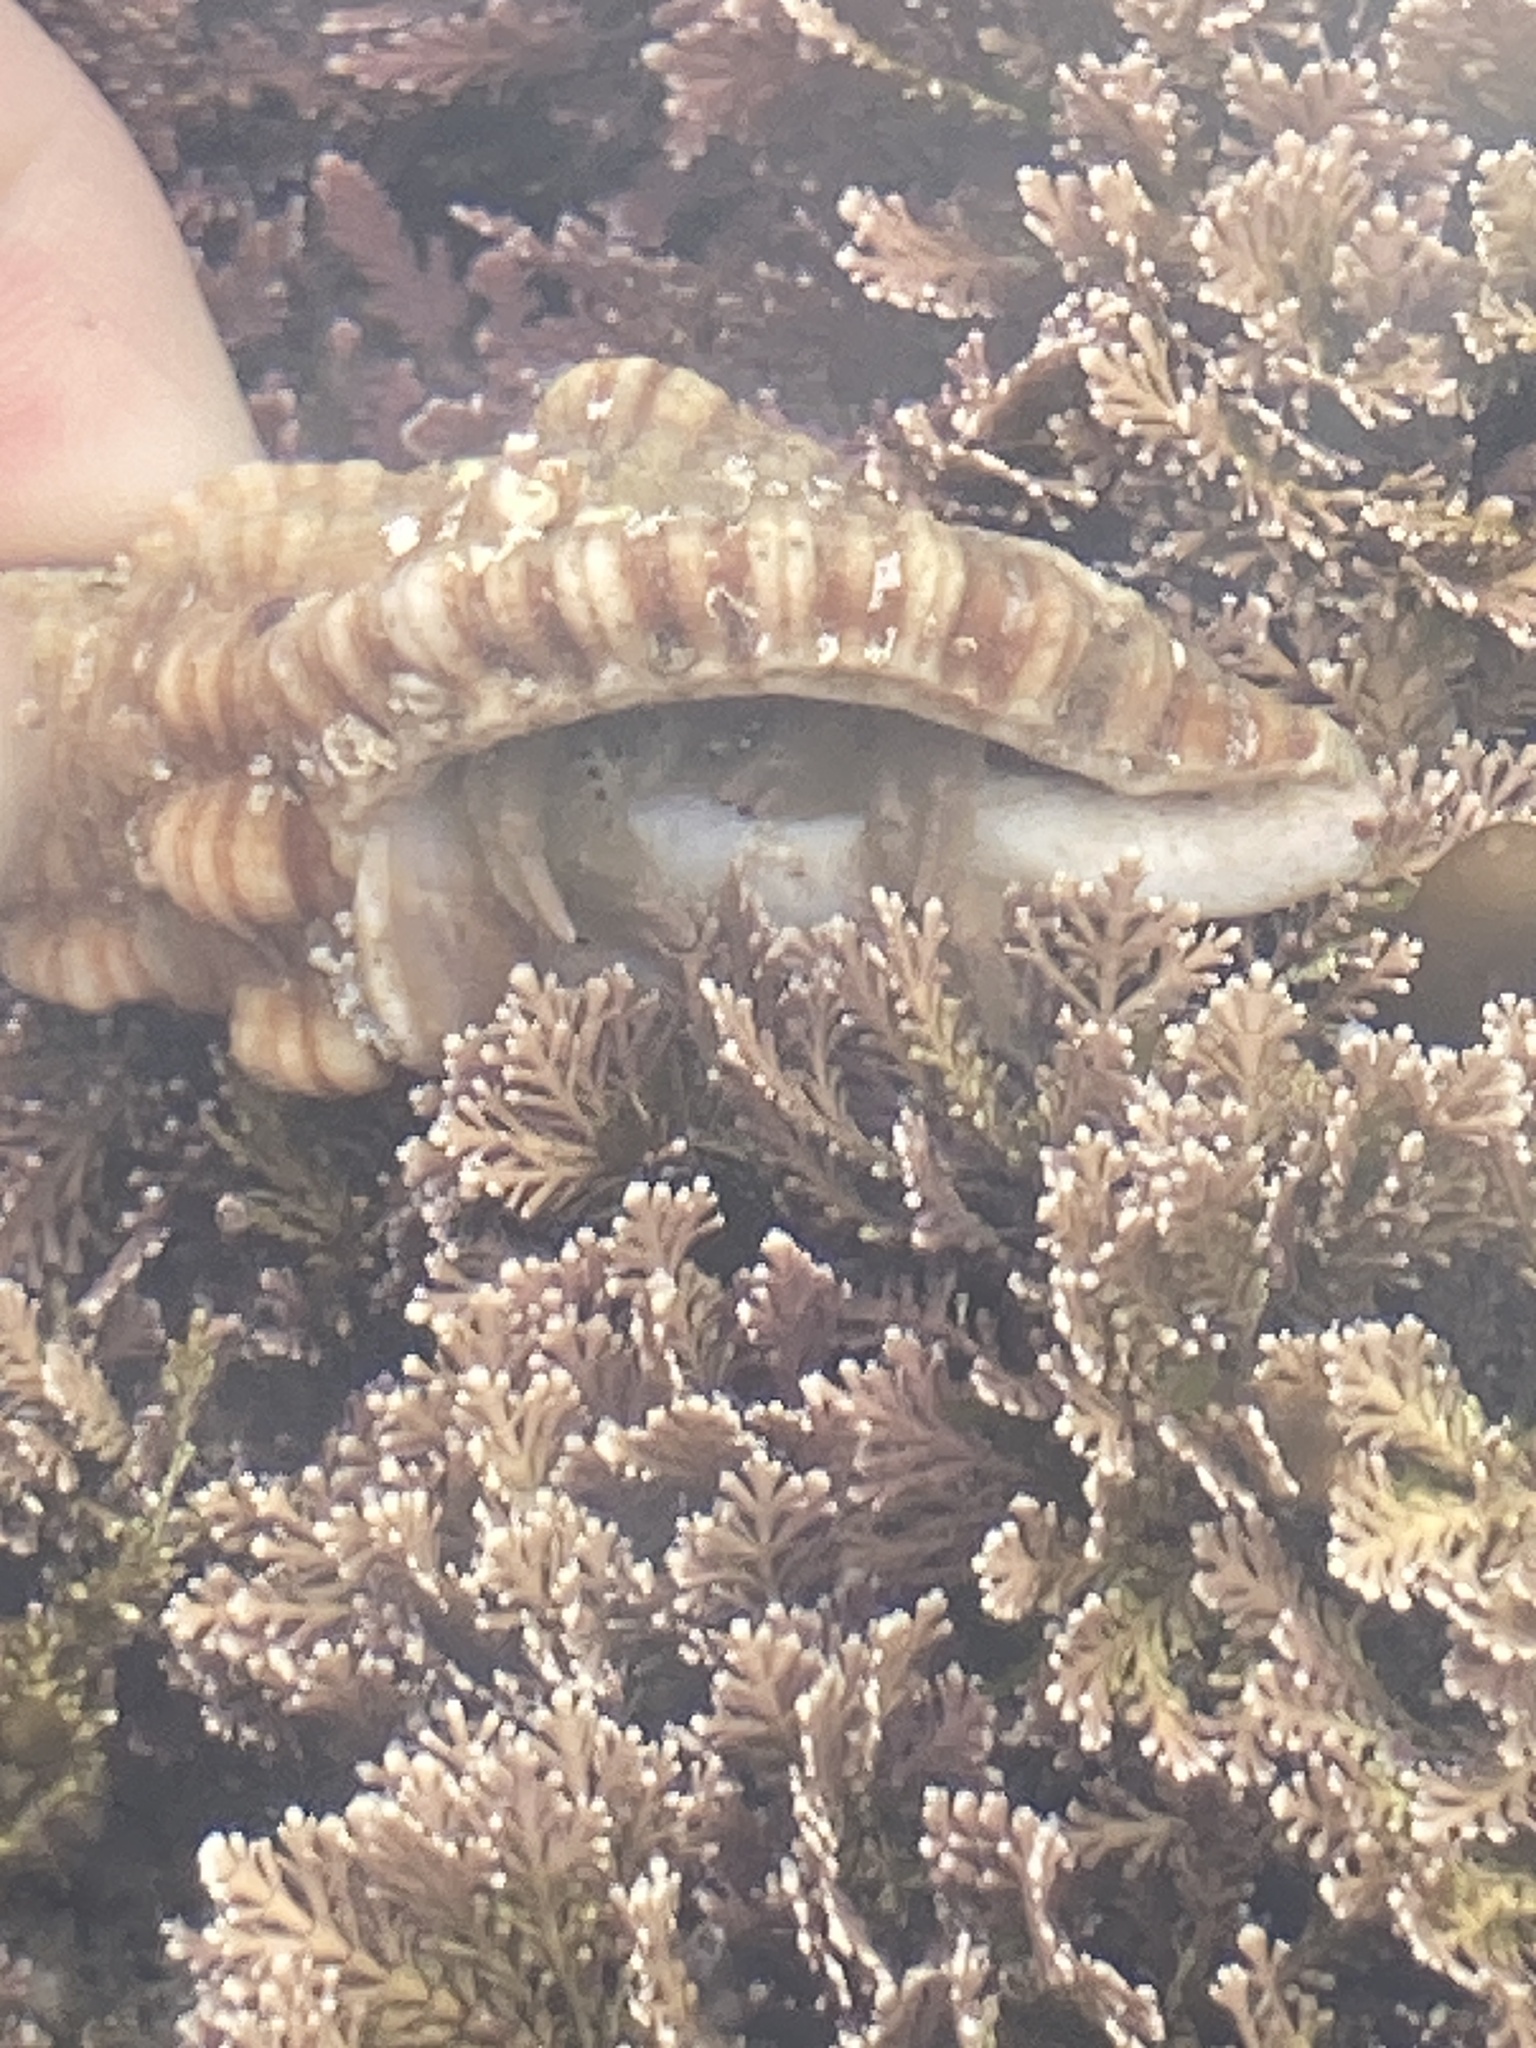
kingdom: Animalia
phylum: Arthropoda
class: Malacostraca
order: Decapoda
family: Diogenidae
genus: Paguristes
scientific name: Paguristes pugil
